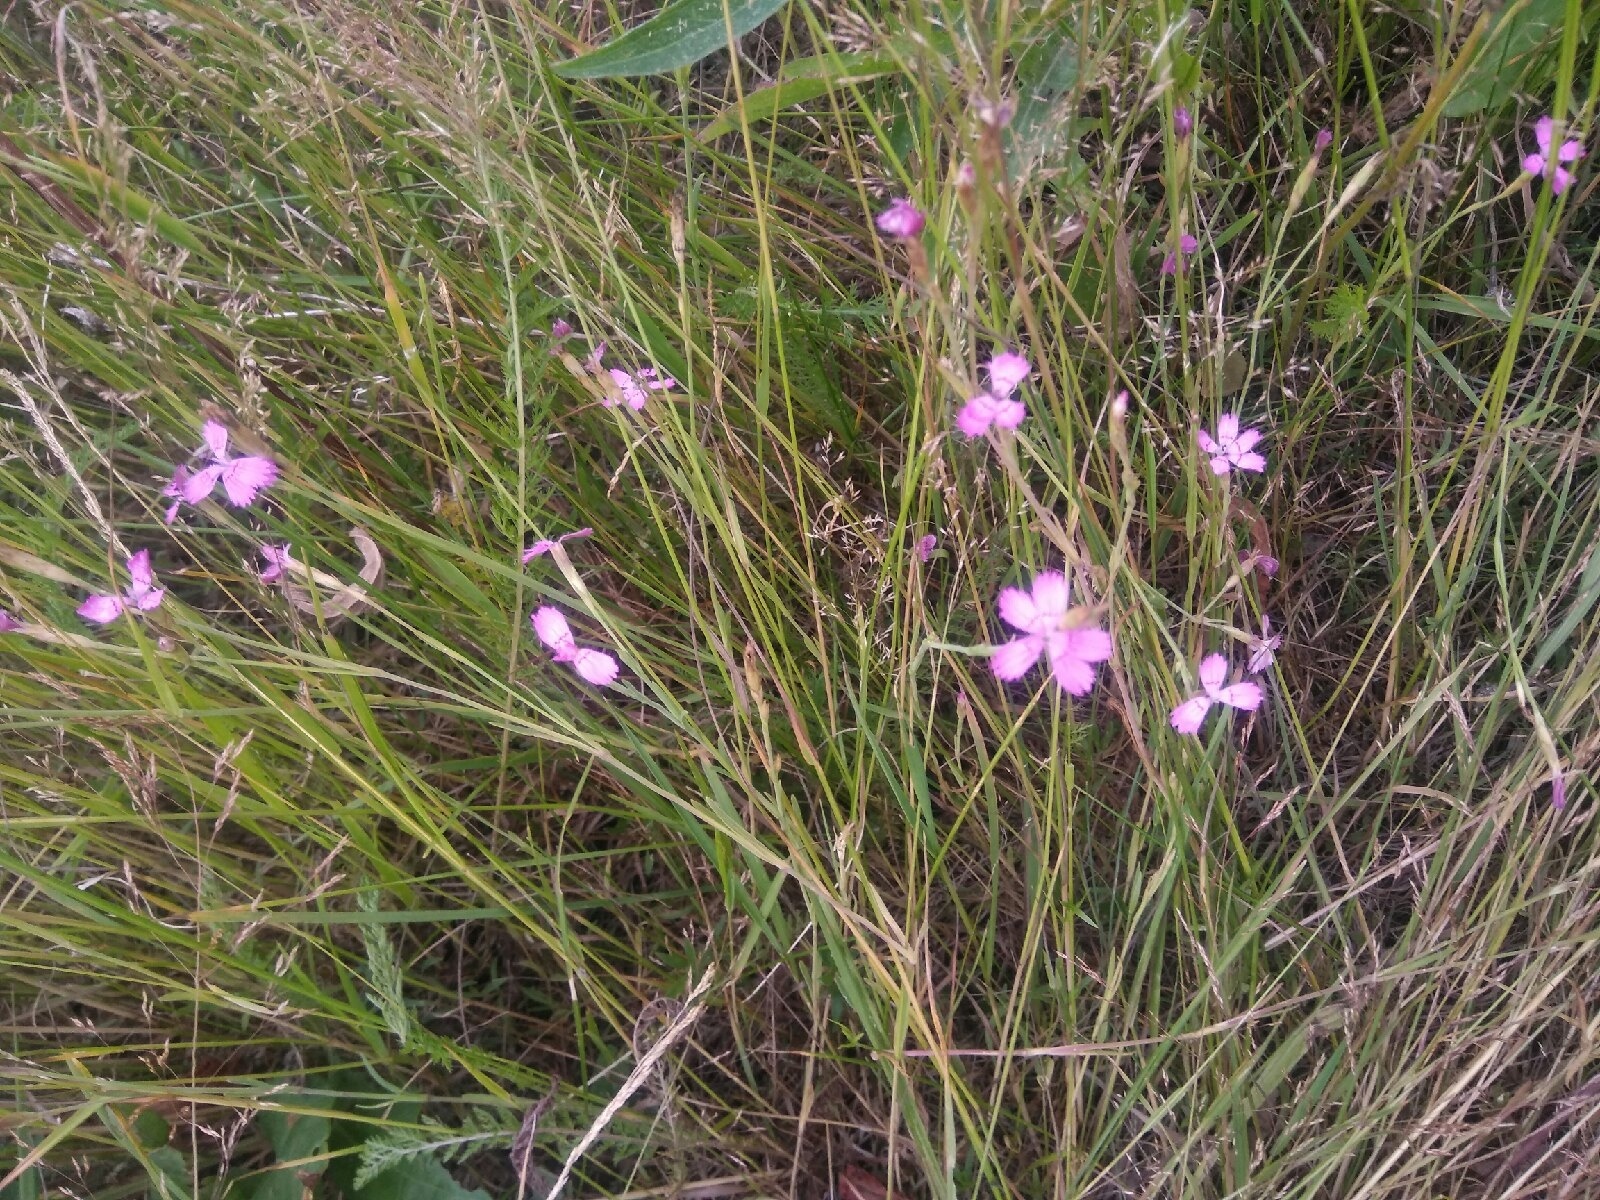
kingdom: Plantae
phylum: Tracheophyta
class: Magnoliopsida
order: Caryophyllales
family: Caryophyllaceae
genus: Dianthus
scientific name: Dianthus deltoides
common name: Maiden pink
